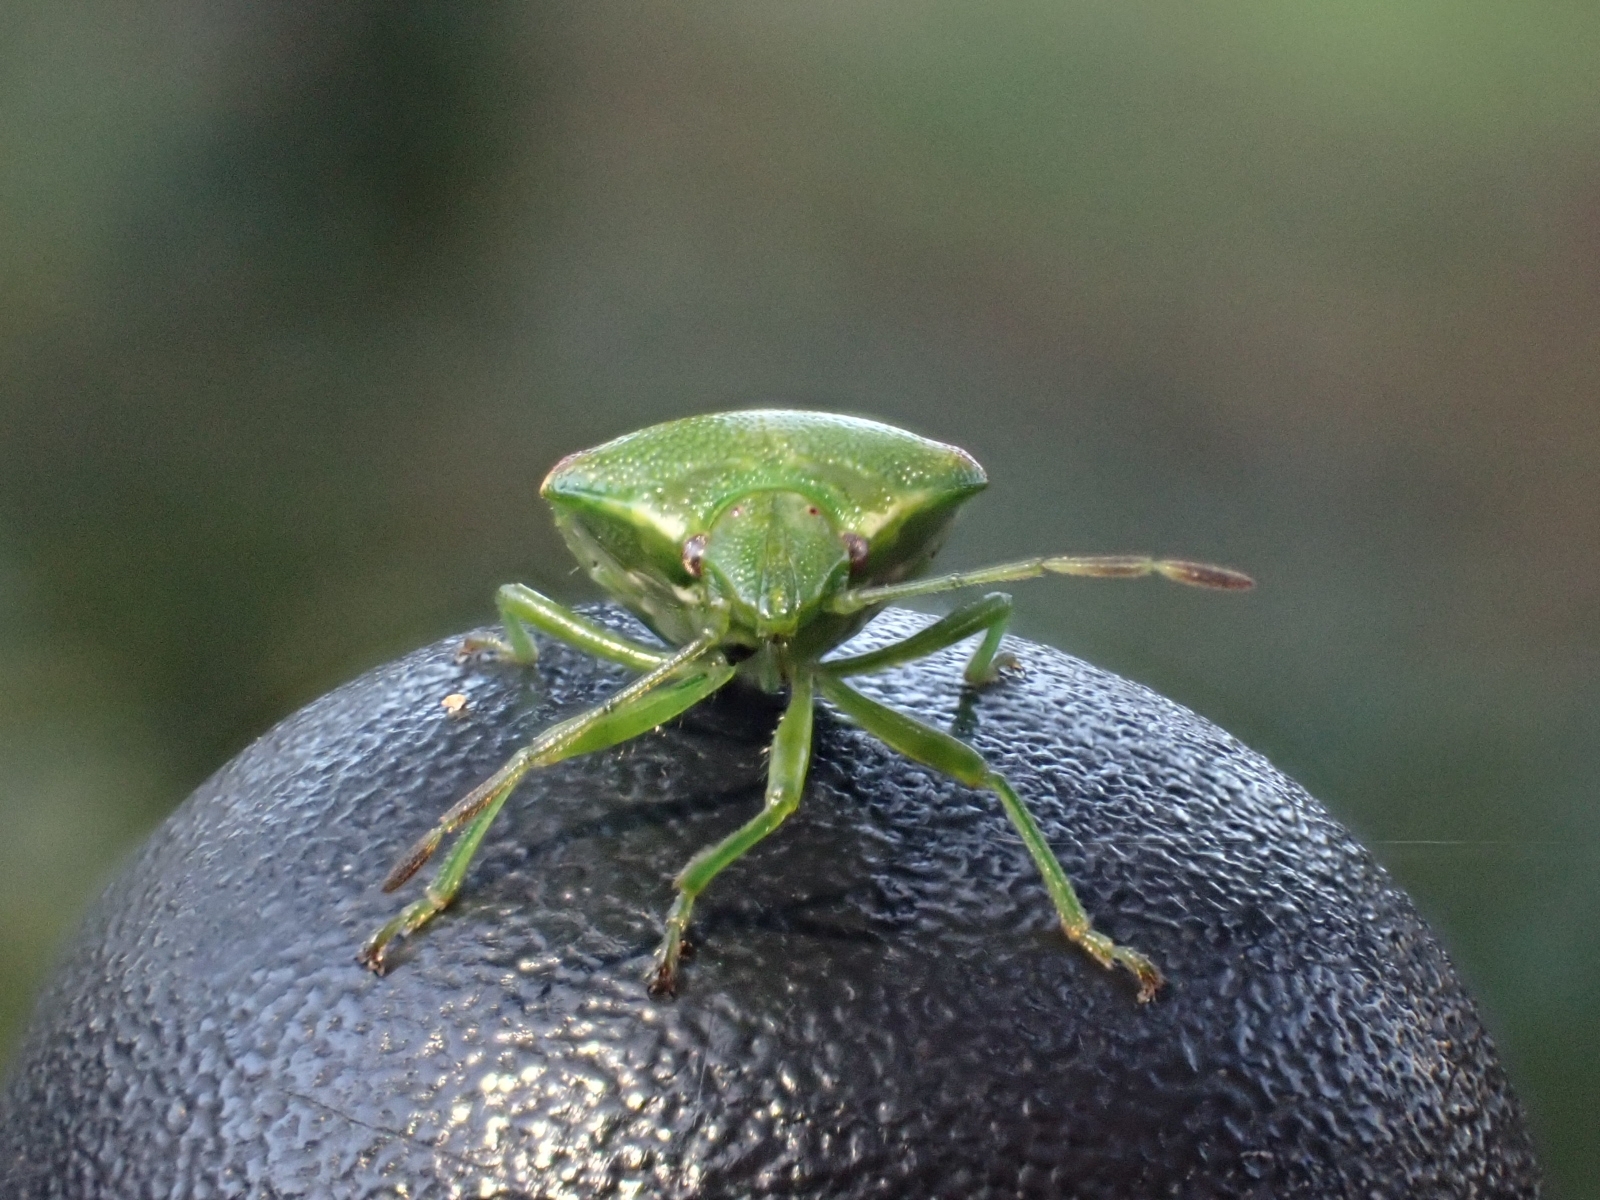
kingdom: Animalia
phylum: Arthropoda
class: Insecta
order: Hemiptera
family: Acanthosomatidae
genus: Cyphostethus
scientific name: Cyphostethus tristriatus
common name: Juniper shieldbug
